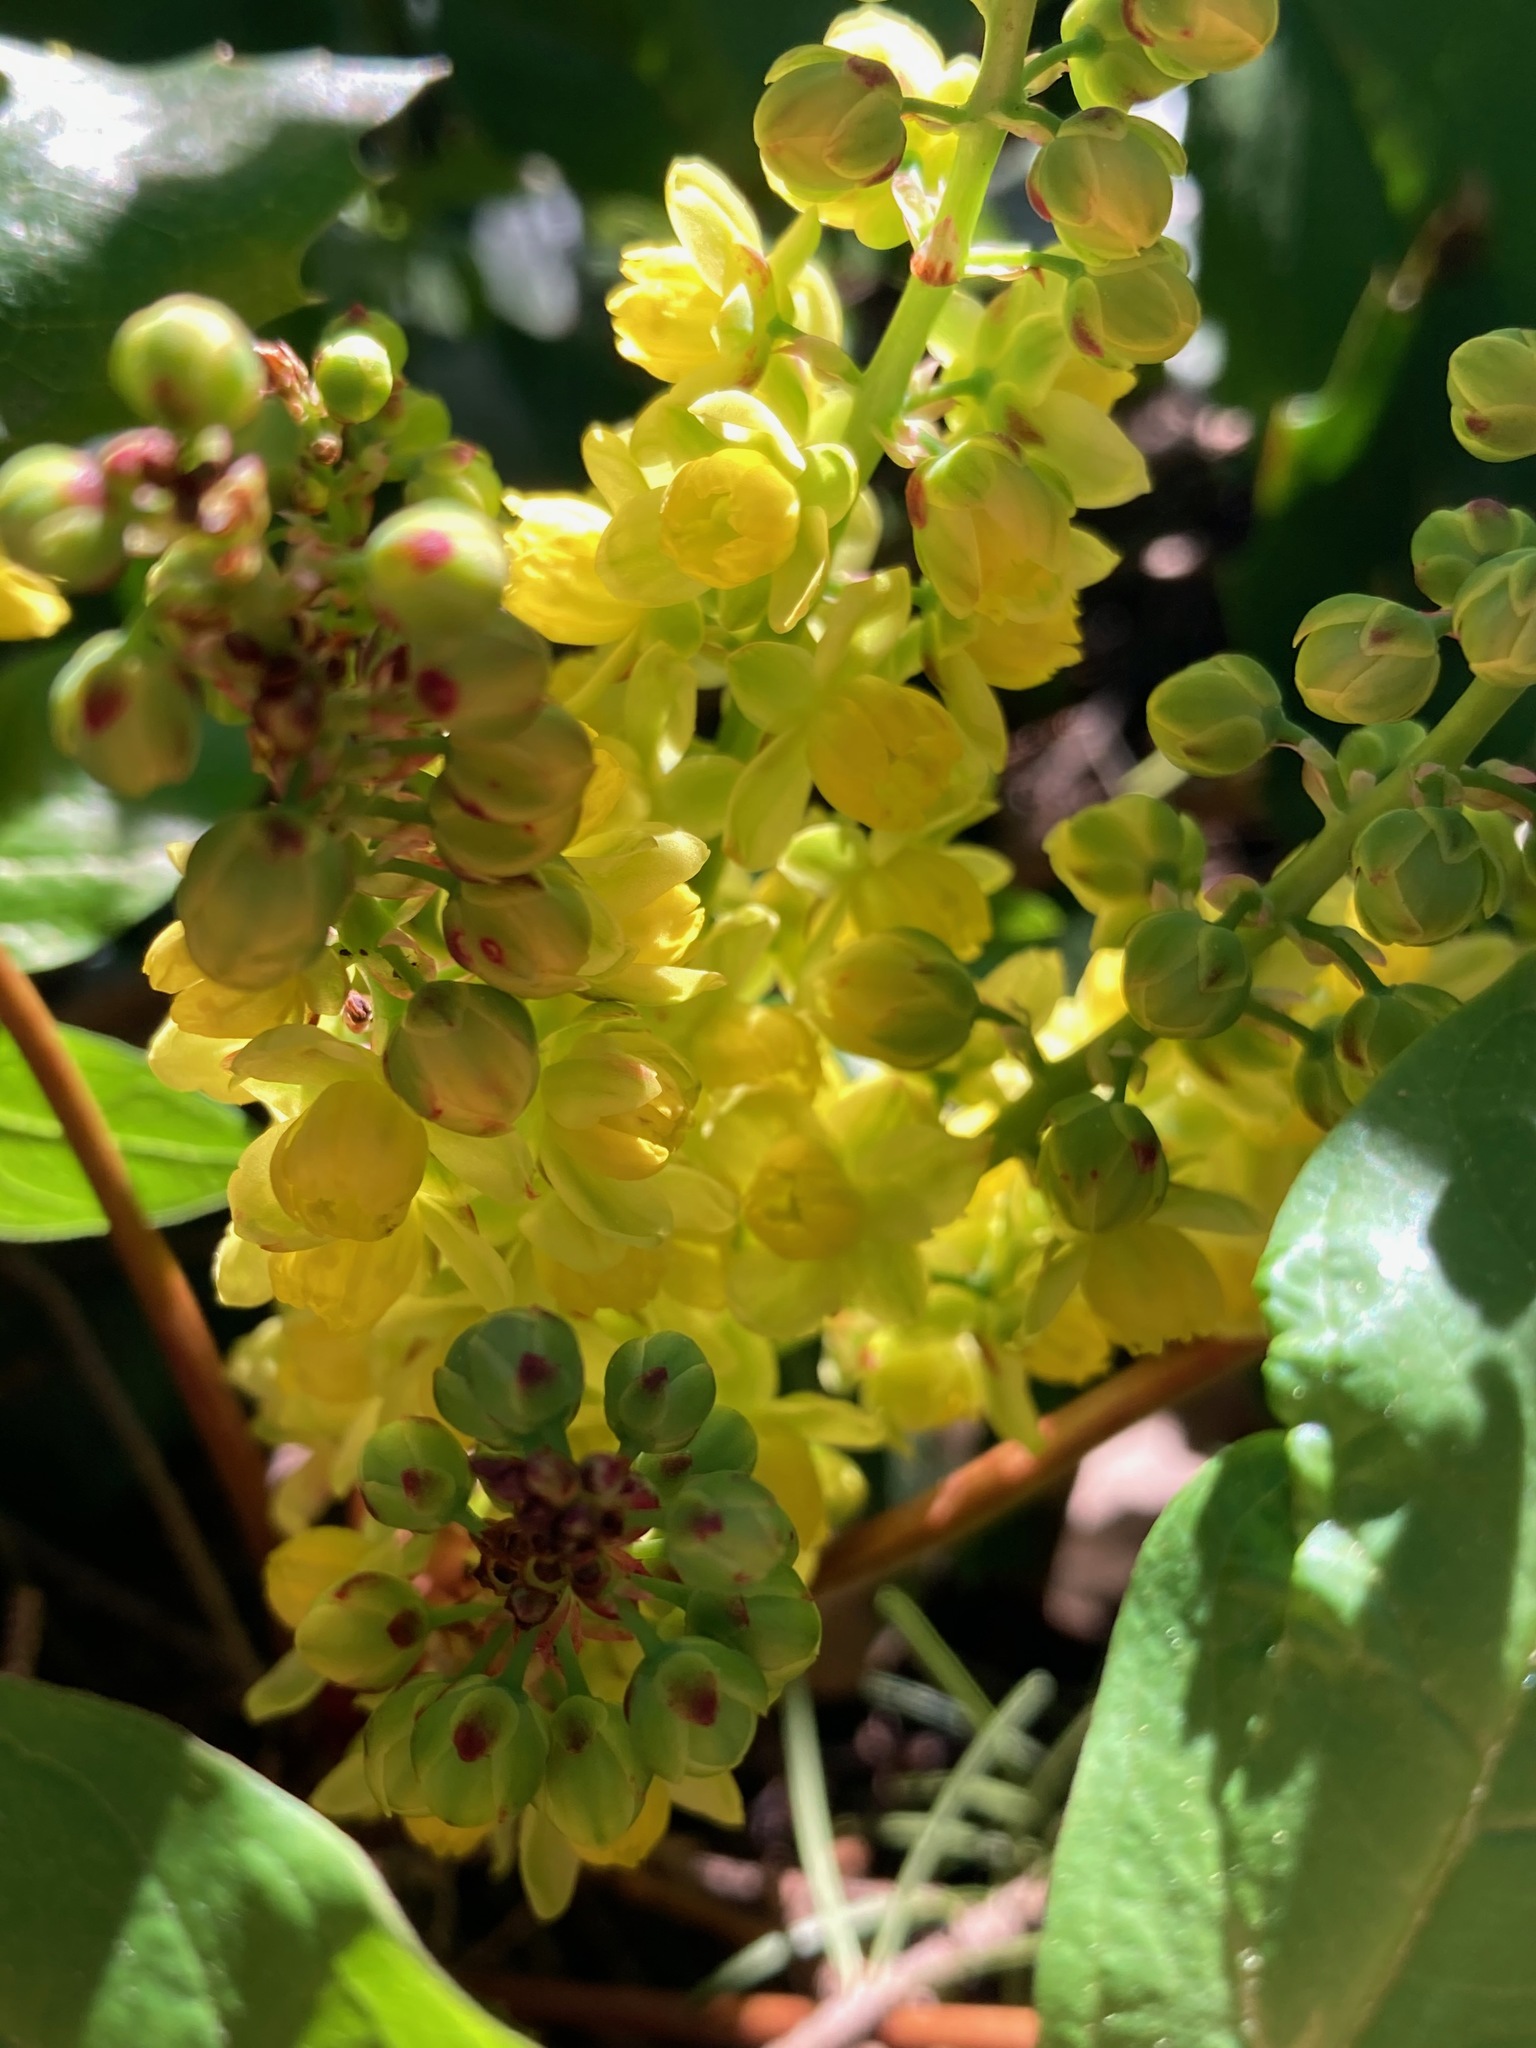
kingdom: Plantae
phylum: Tracheophyta
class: Magnoliopsida
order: Ranunculales
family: Berberidaceae
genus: Mahonia
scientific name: Mahonia nervosa
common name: Cascade oregon-grape
